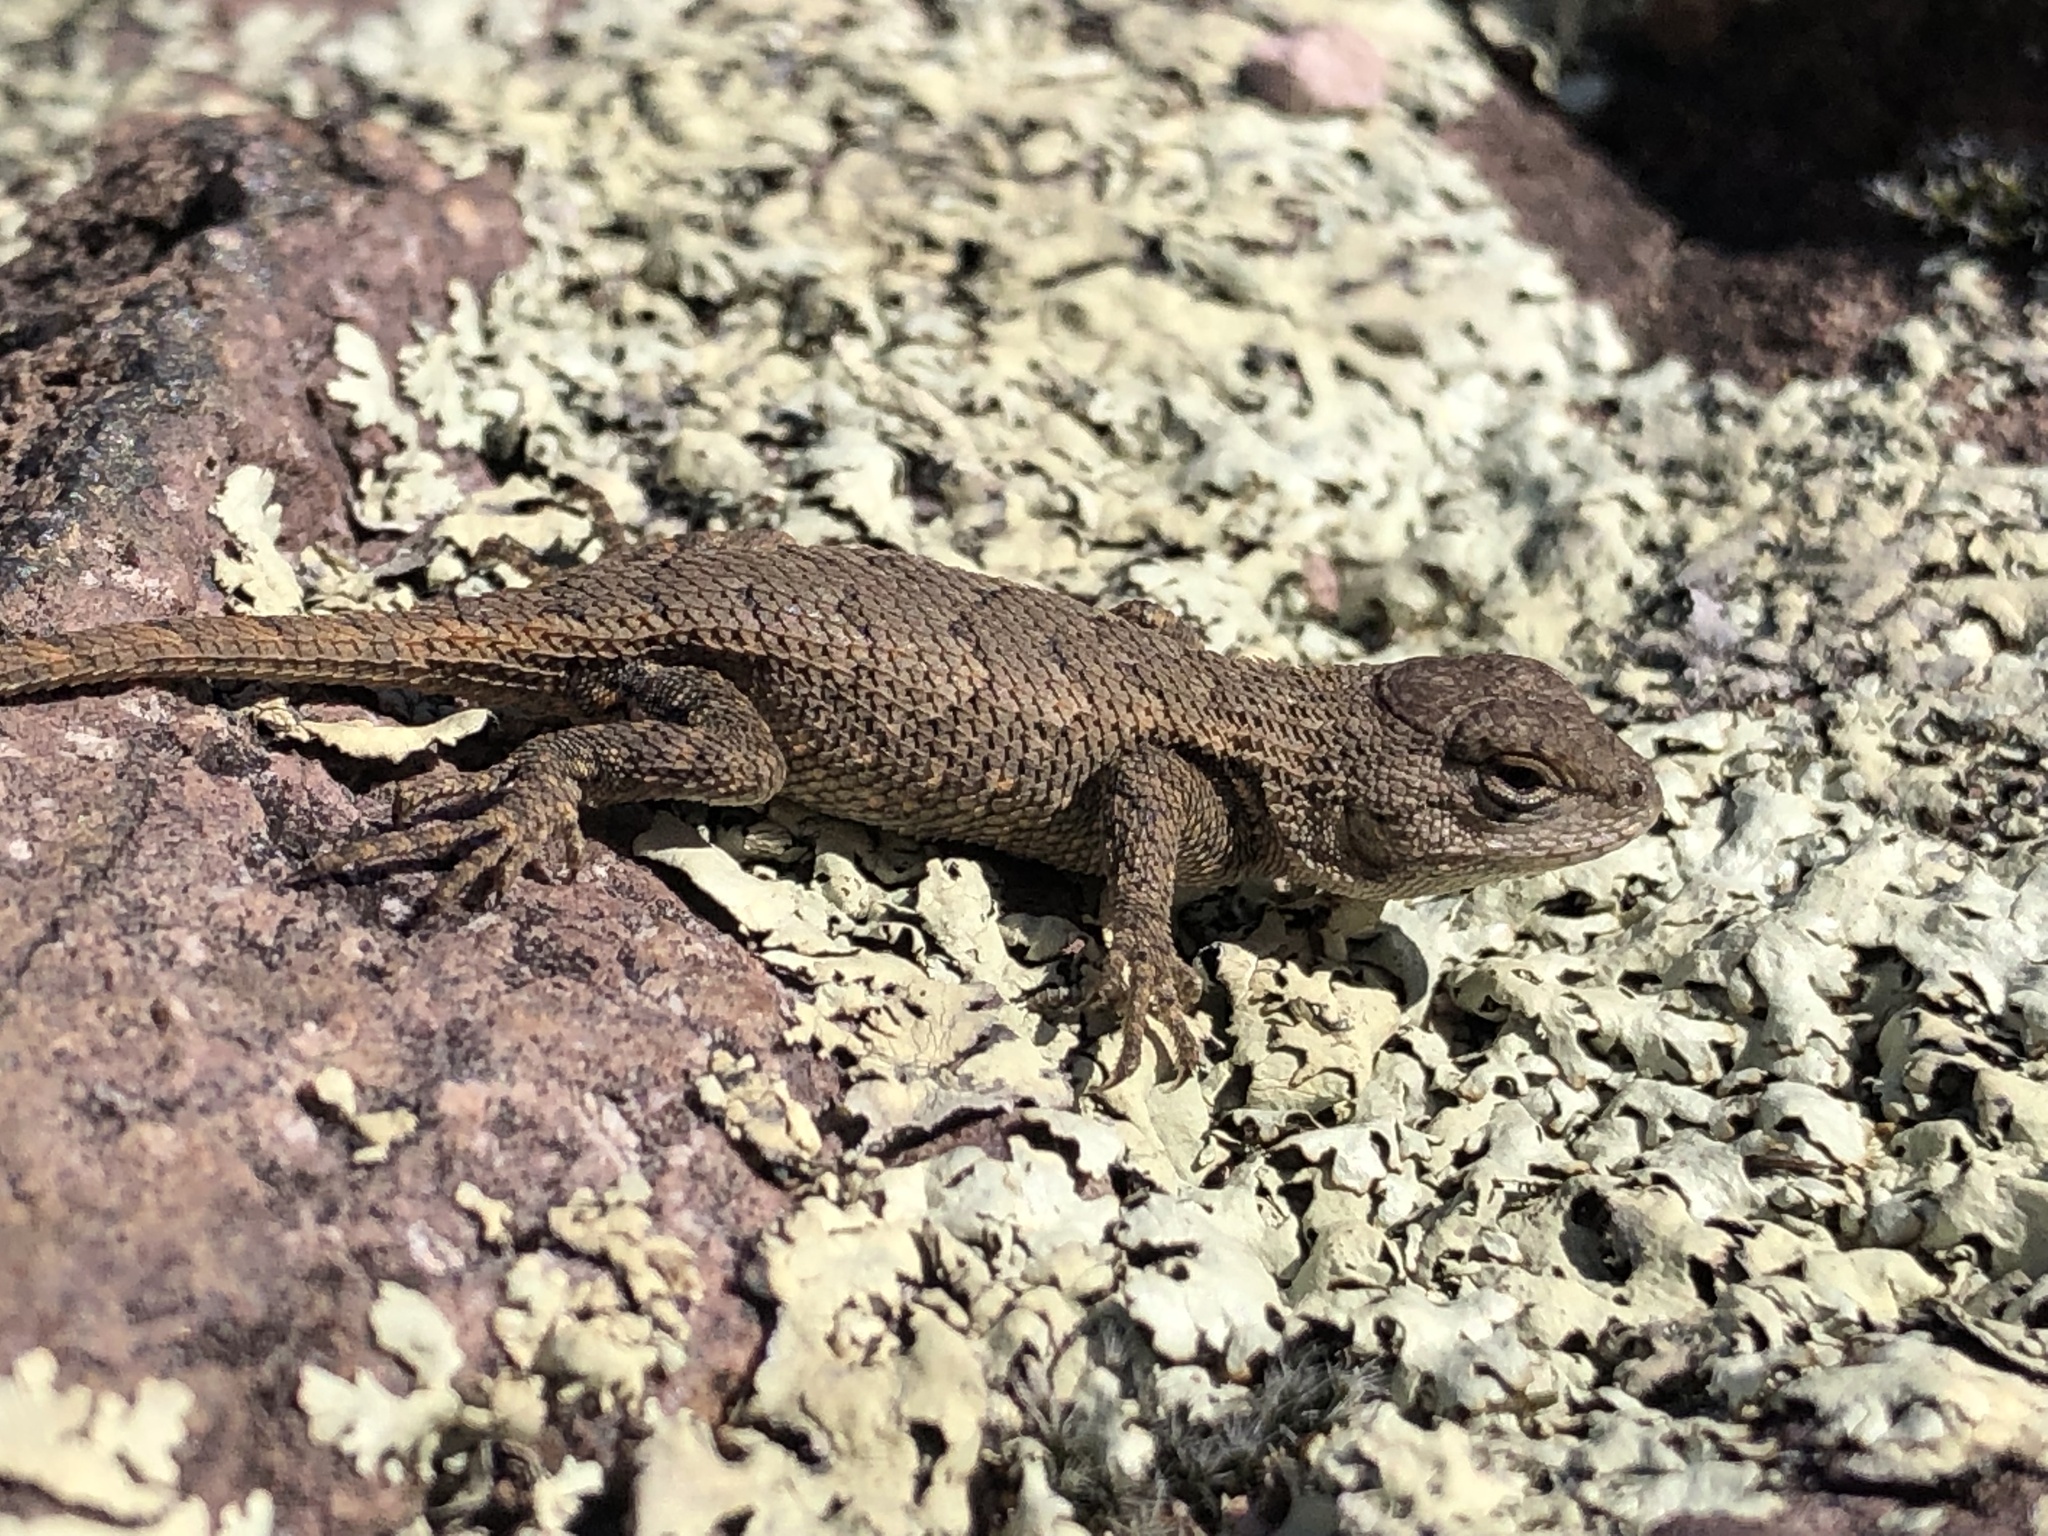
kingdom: Animalia
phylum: Chordata
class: Squamata
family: Phrynosomatidae
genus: Sceloporus
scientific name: Sceloporus consobrinus
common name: Southern prairie lizard
